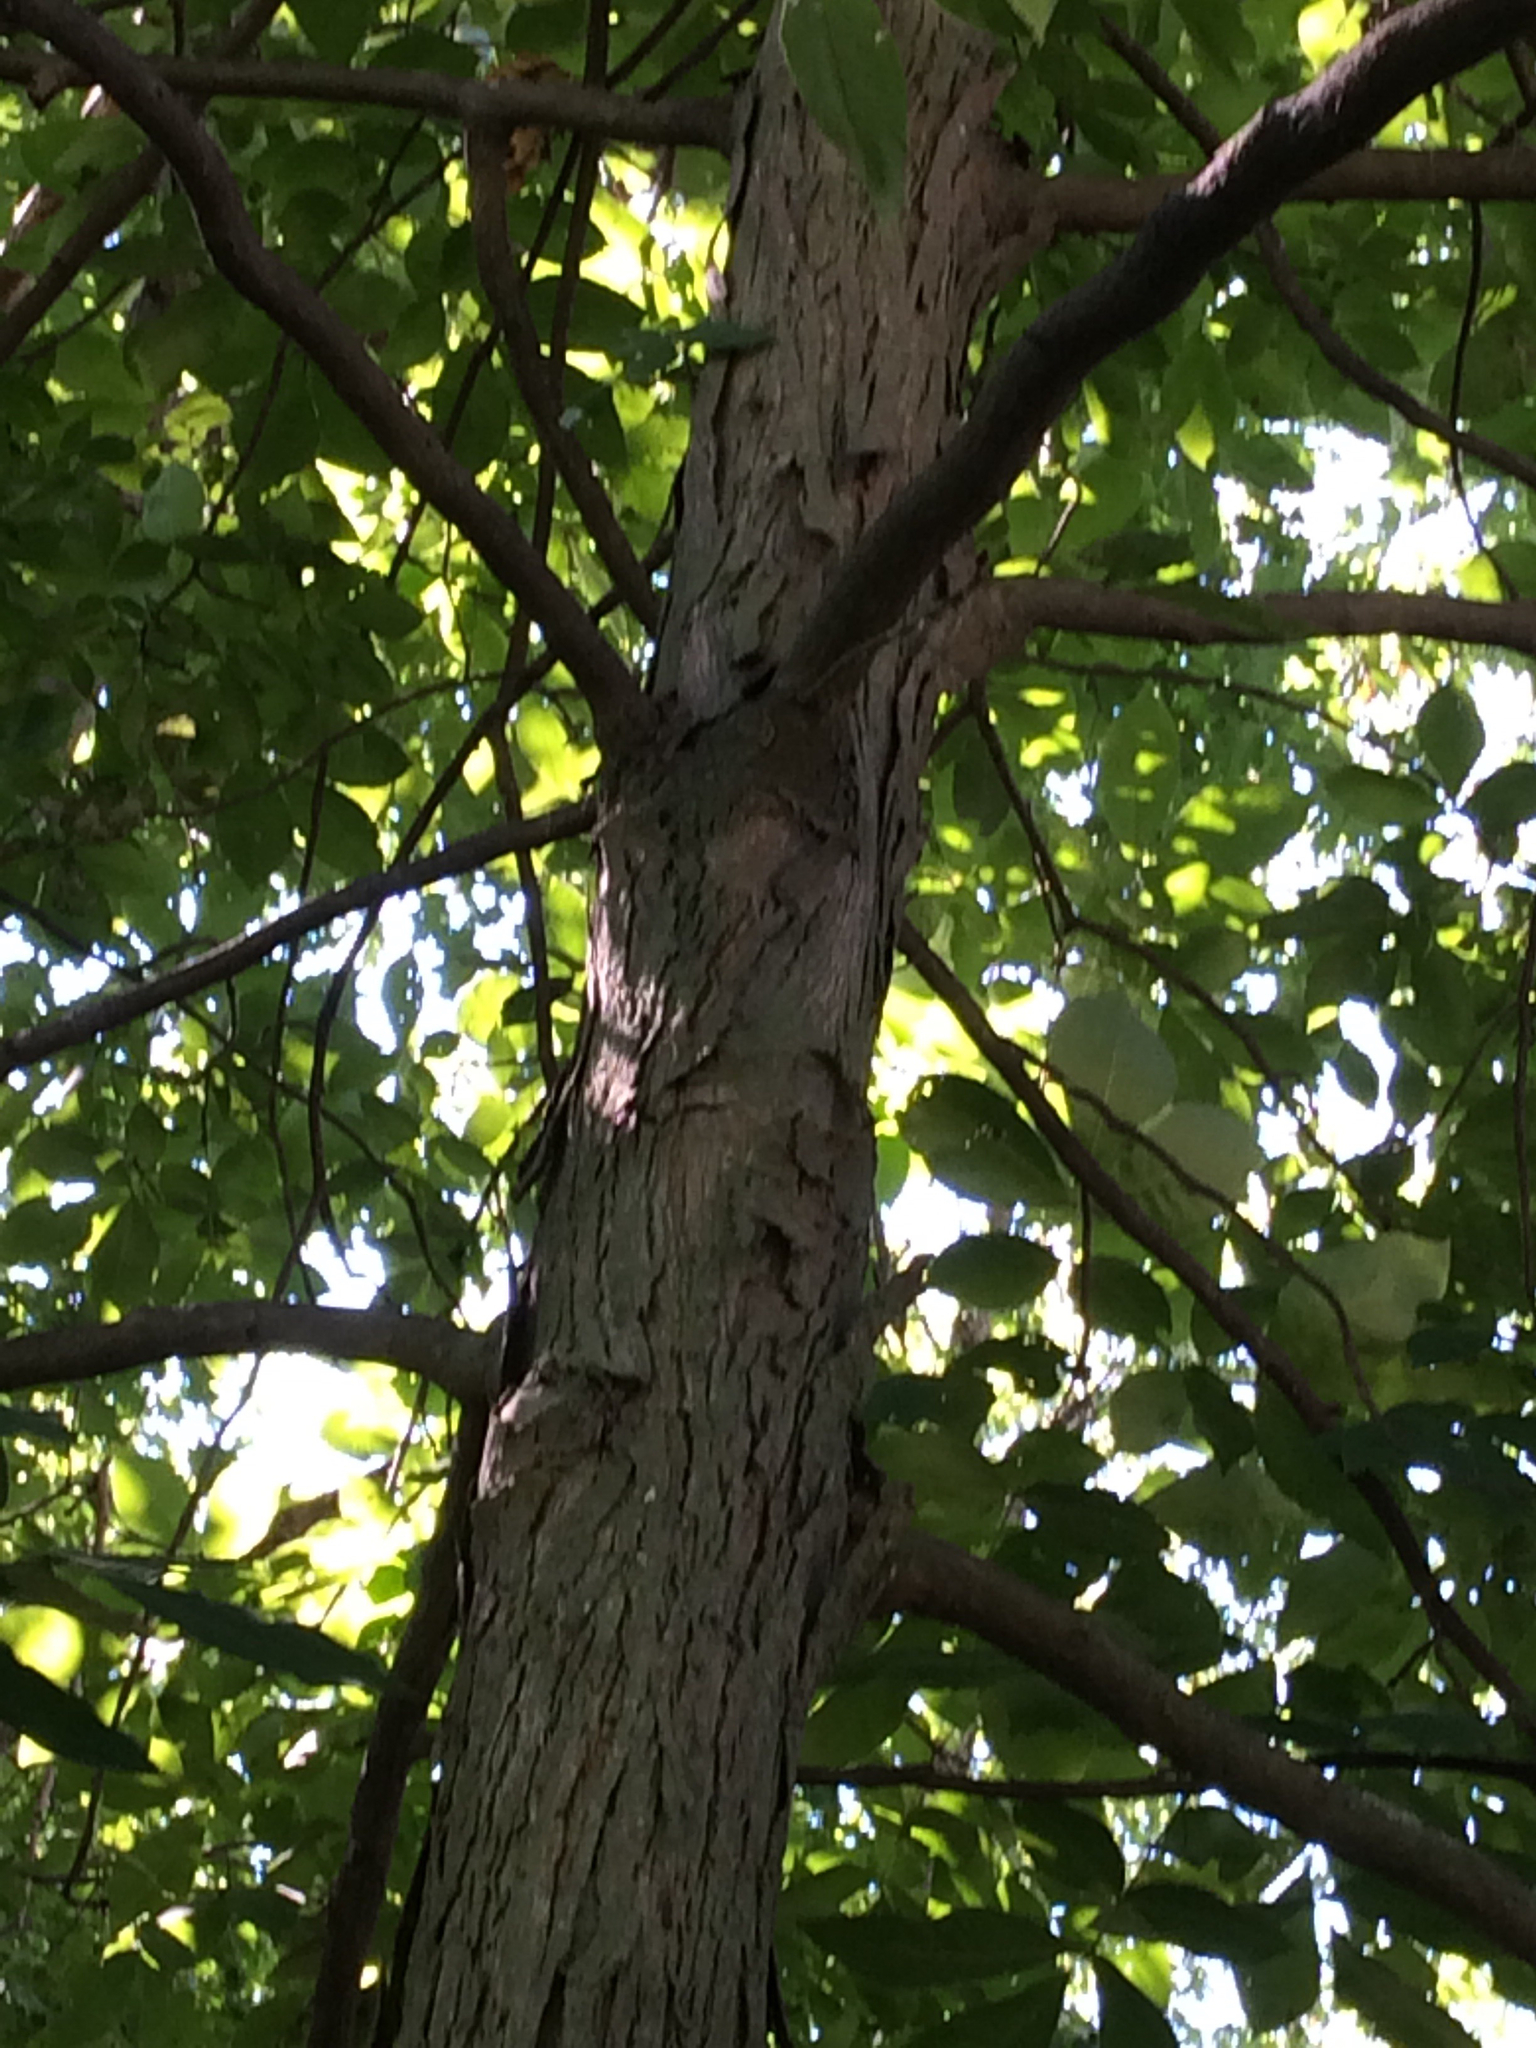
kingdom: Plantae
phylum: Tracheophyta
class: Magnoliopsida
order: Fagales
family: Juglandaceae
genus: Carya
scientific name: Carya ovata
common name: Shagbark hickory
